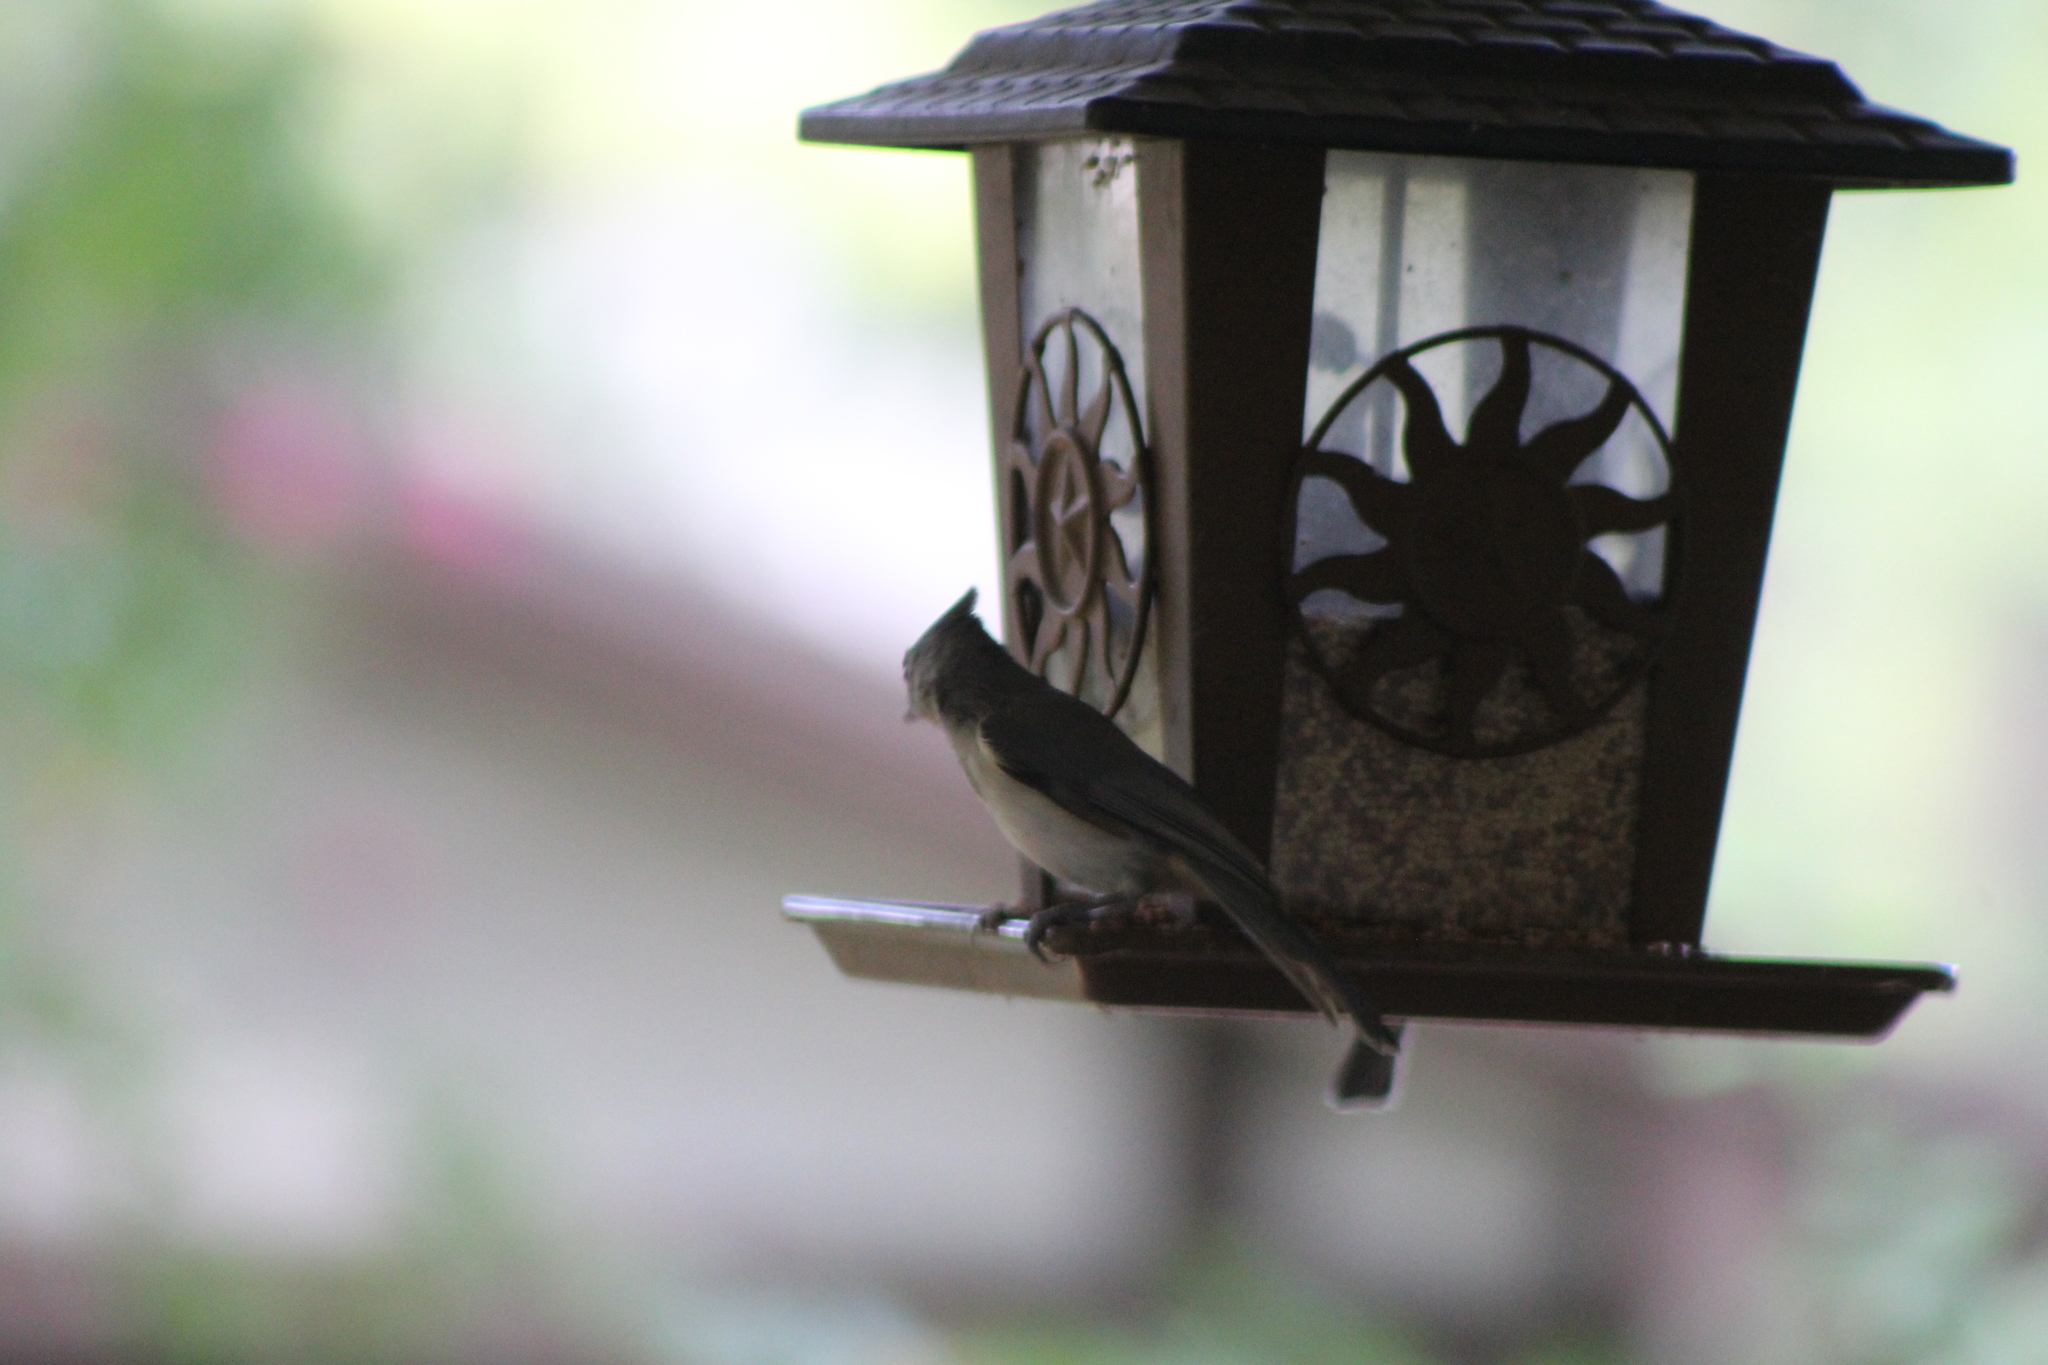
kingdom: Animalia
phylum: Chordata
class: Aves
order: Passeriformes
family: Paridae
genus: Baeolophus
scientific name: Baeolophus bicolor
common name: Tufted titmouse
